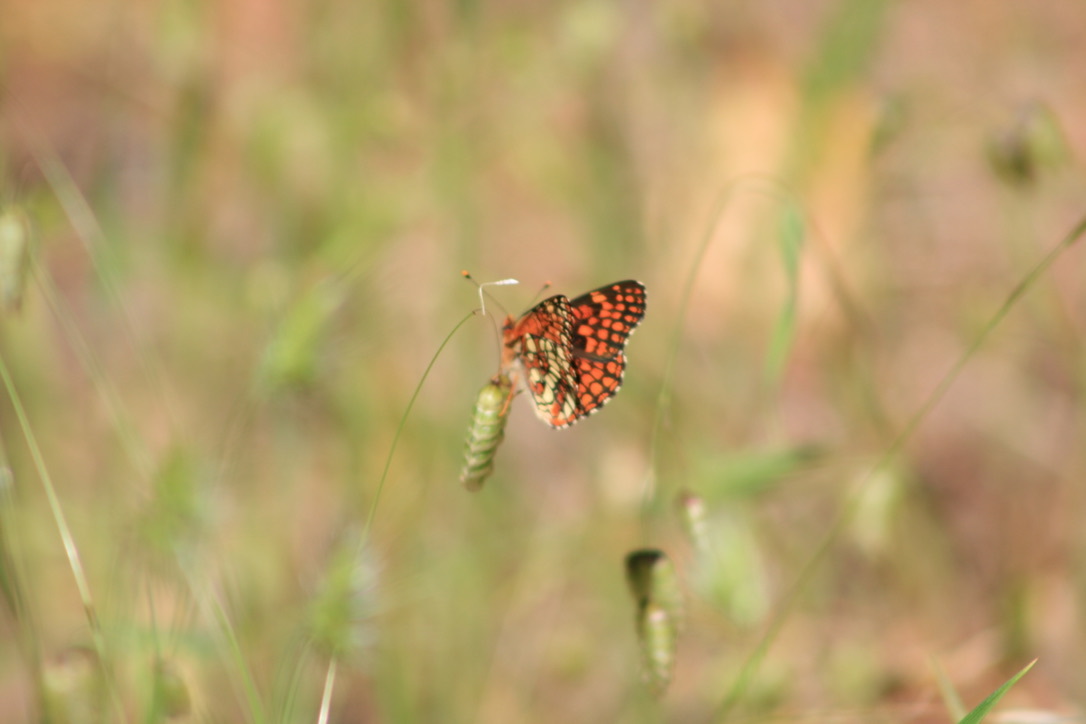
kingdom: Animalia
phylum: Arthropoda
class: Insecta
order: Lepidoptera
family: Nymphalidae
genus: Chlosyne
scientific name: Chlosyne palla
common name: Northern checkerspot
